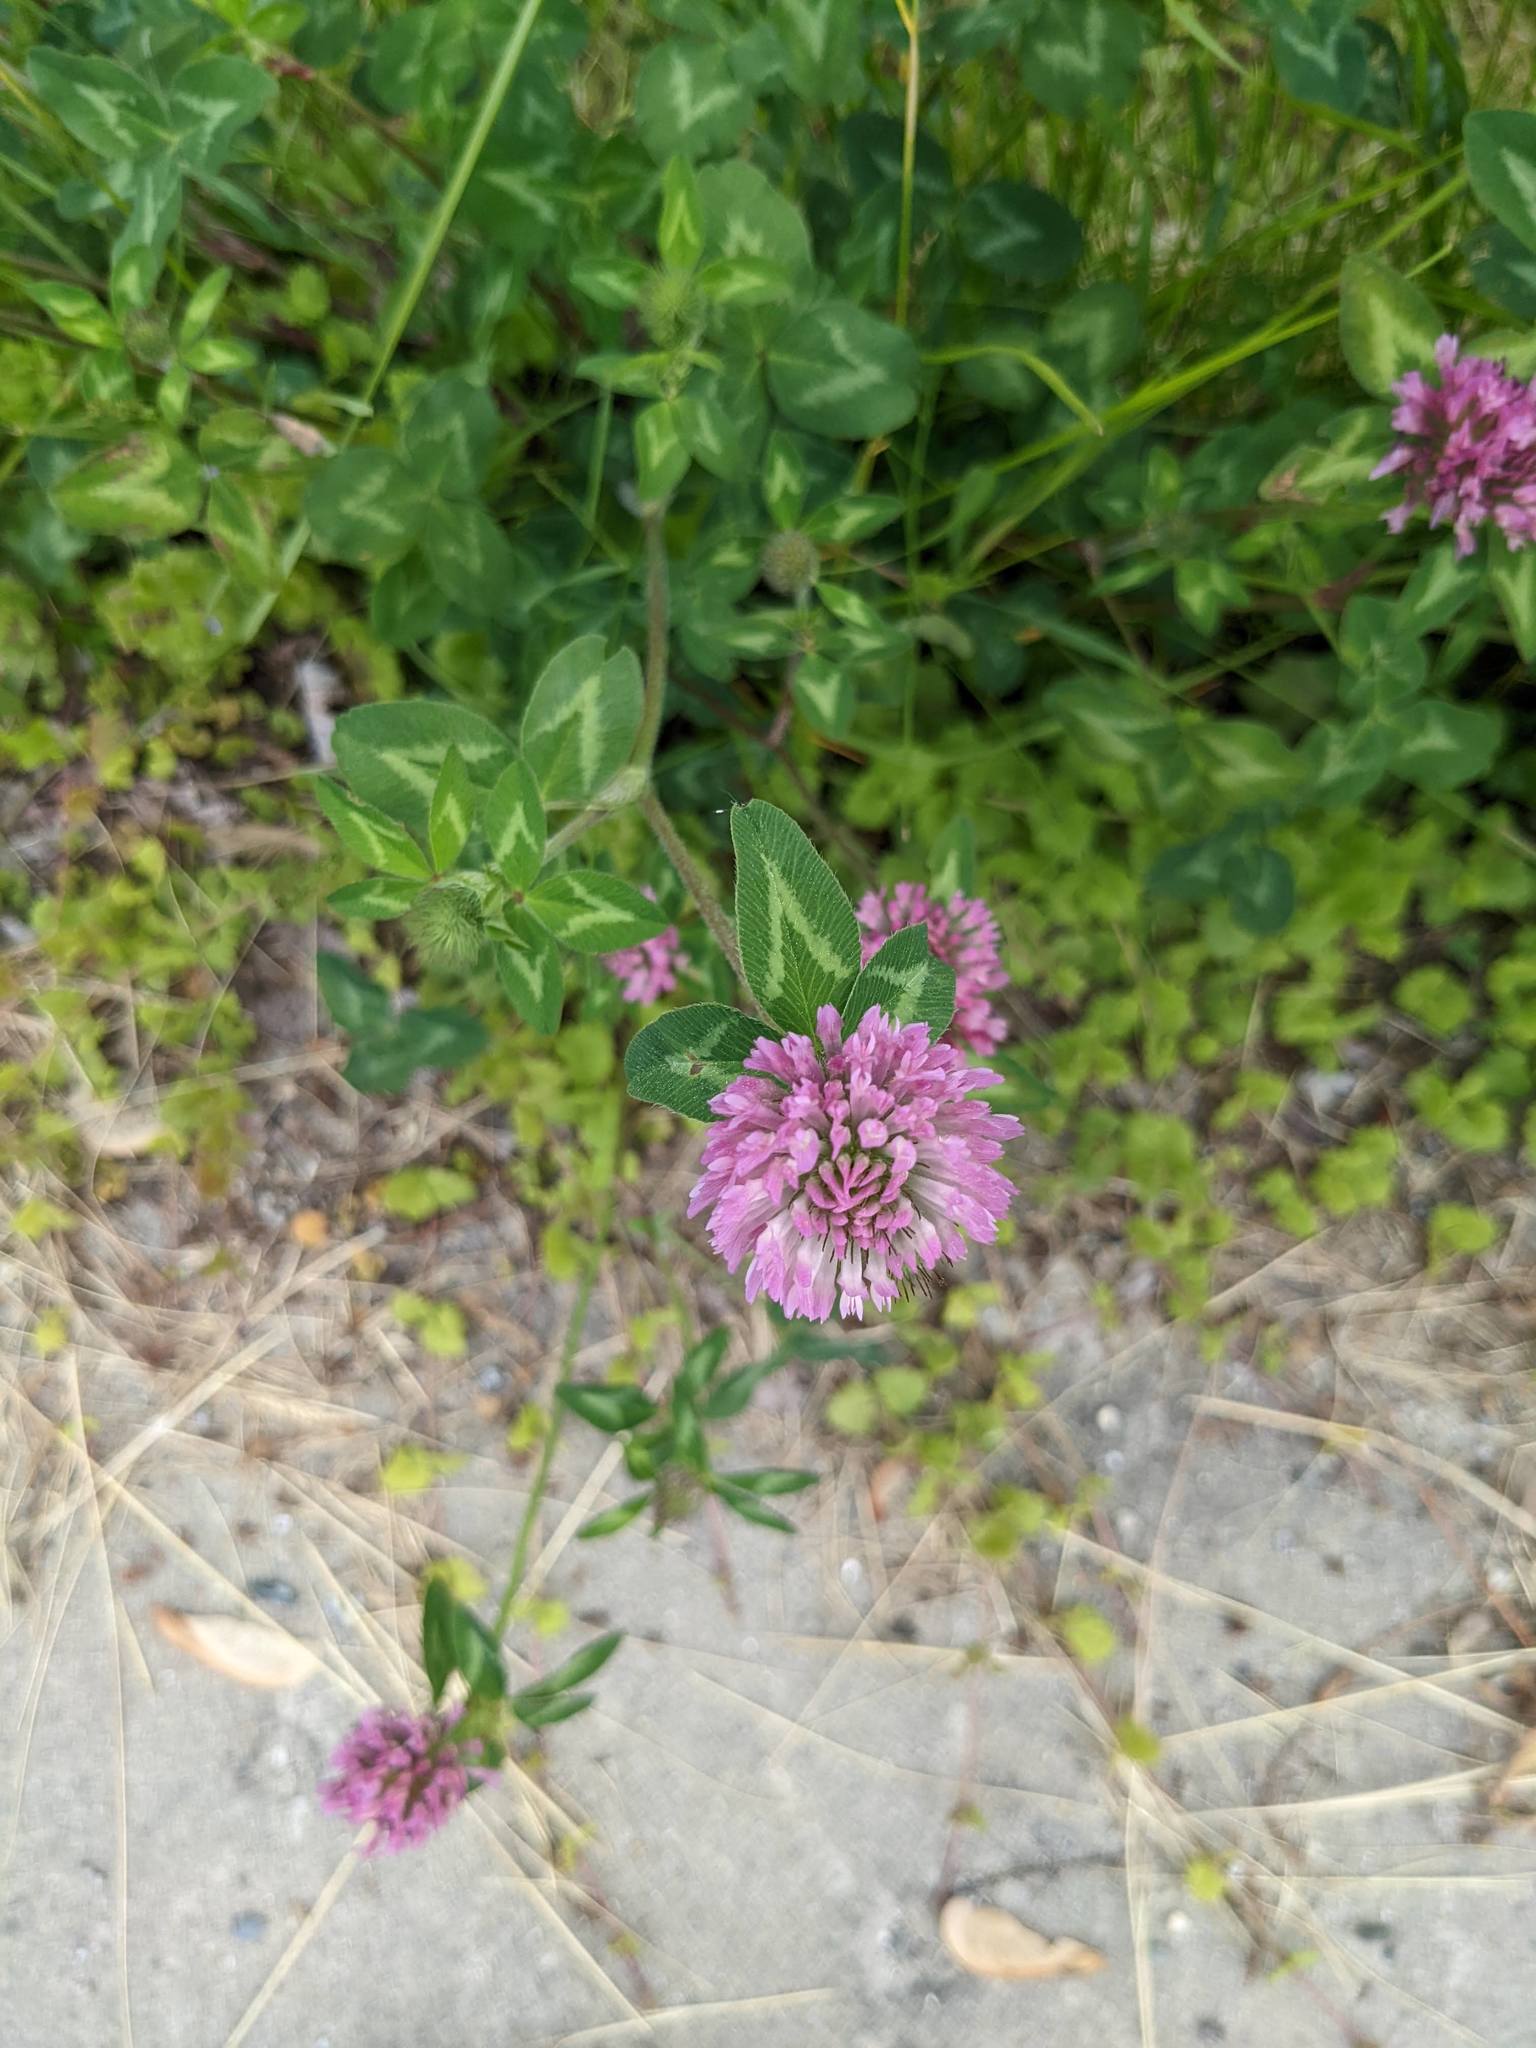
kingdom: Plantae
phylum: Tracheophyta
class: Magnoliopsida
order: Fabales
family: Fabaceae
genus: Trifolium
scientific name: Trifolium pratense
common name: Red clover
